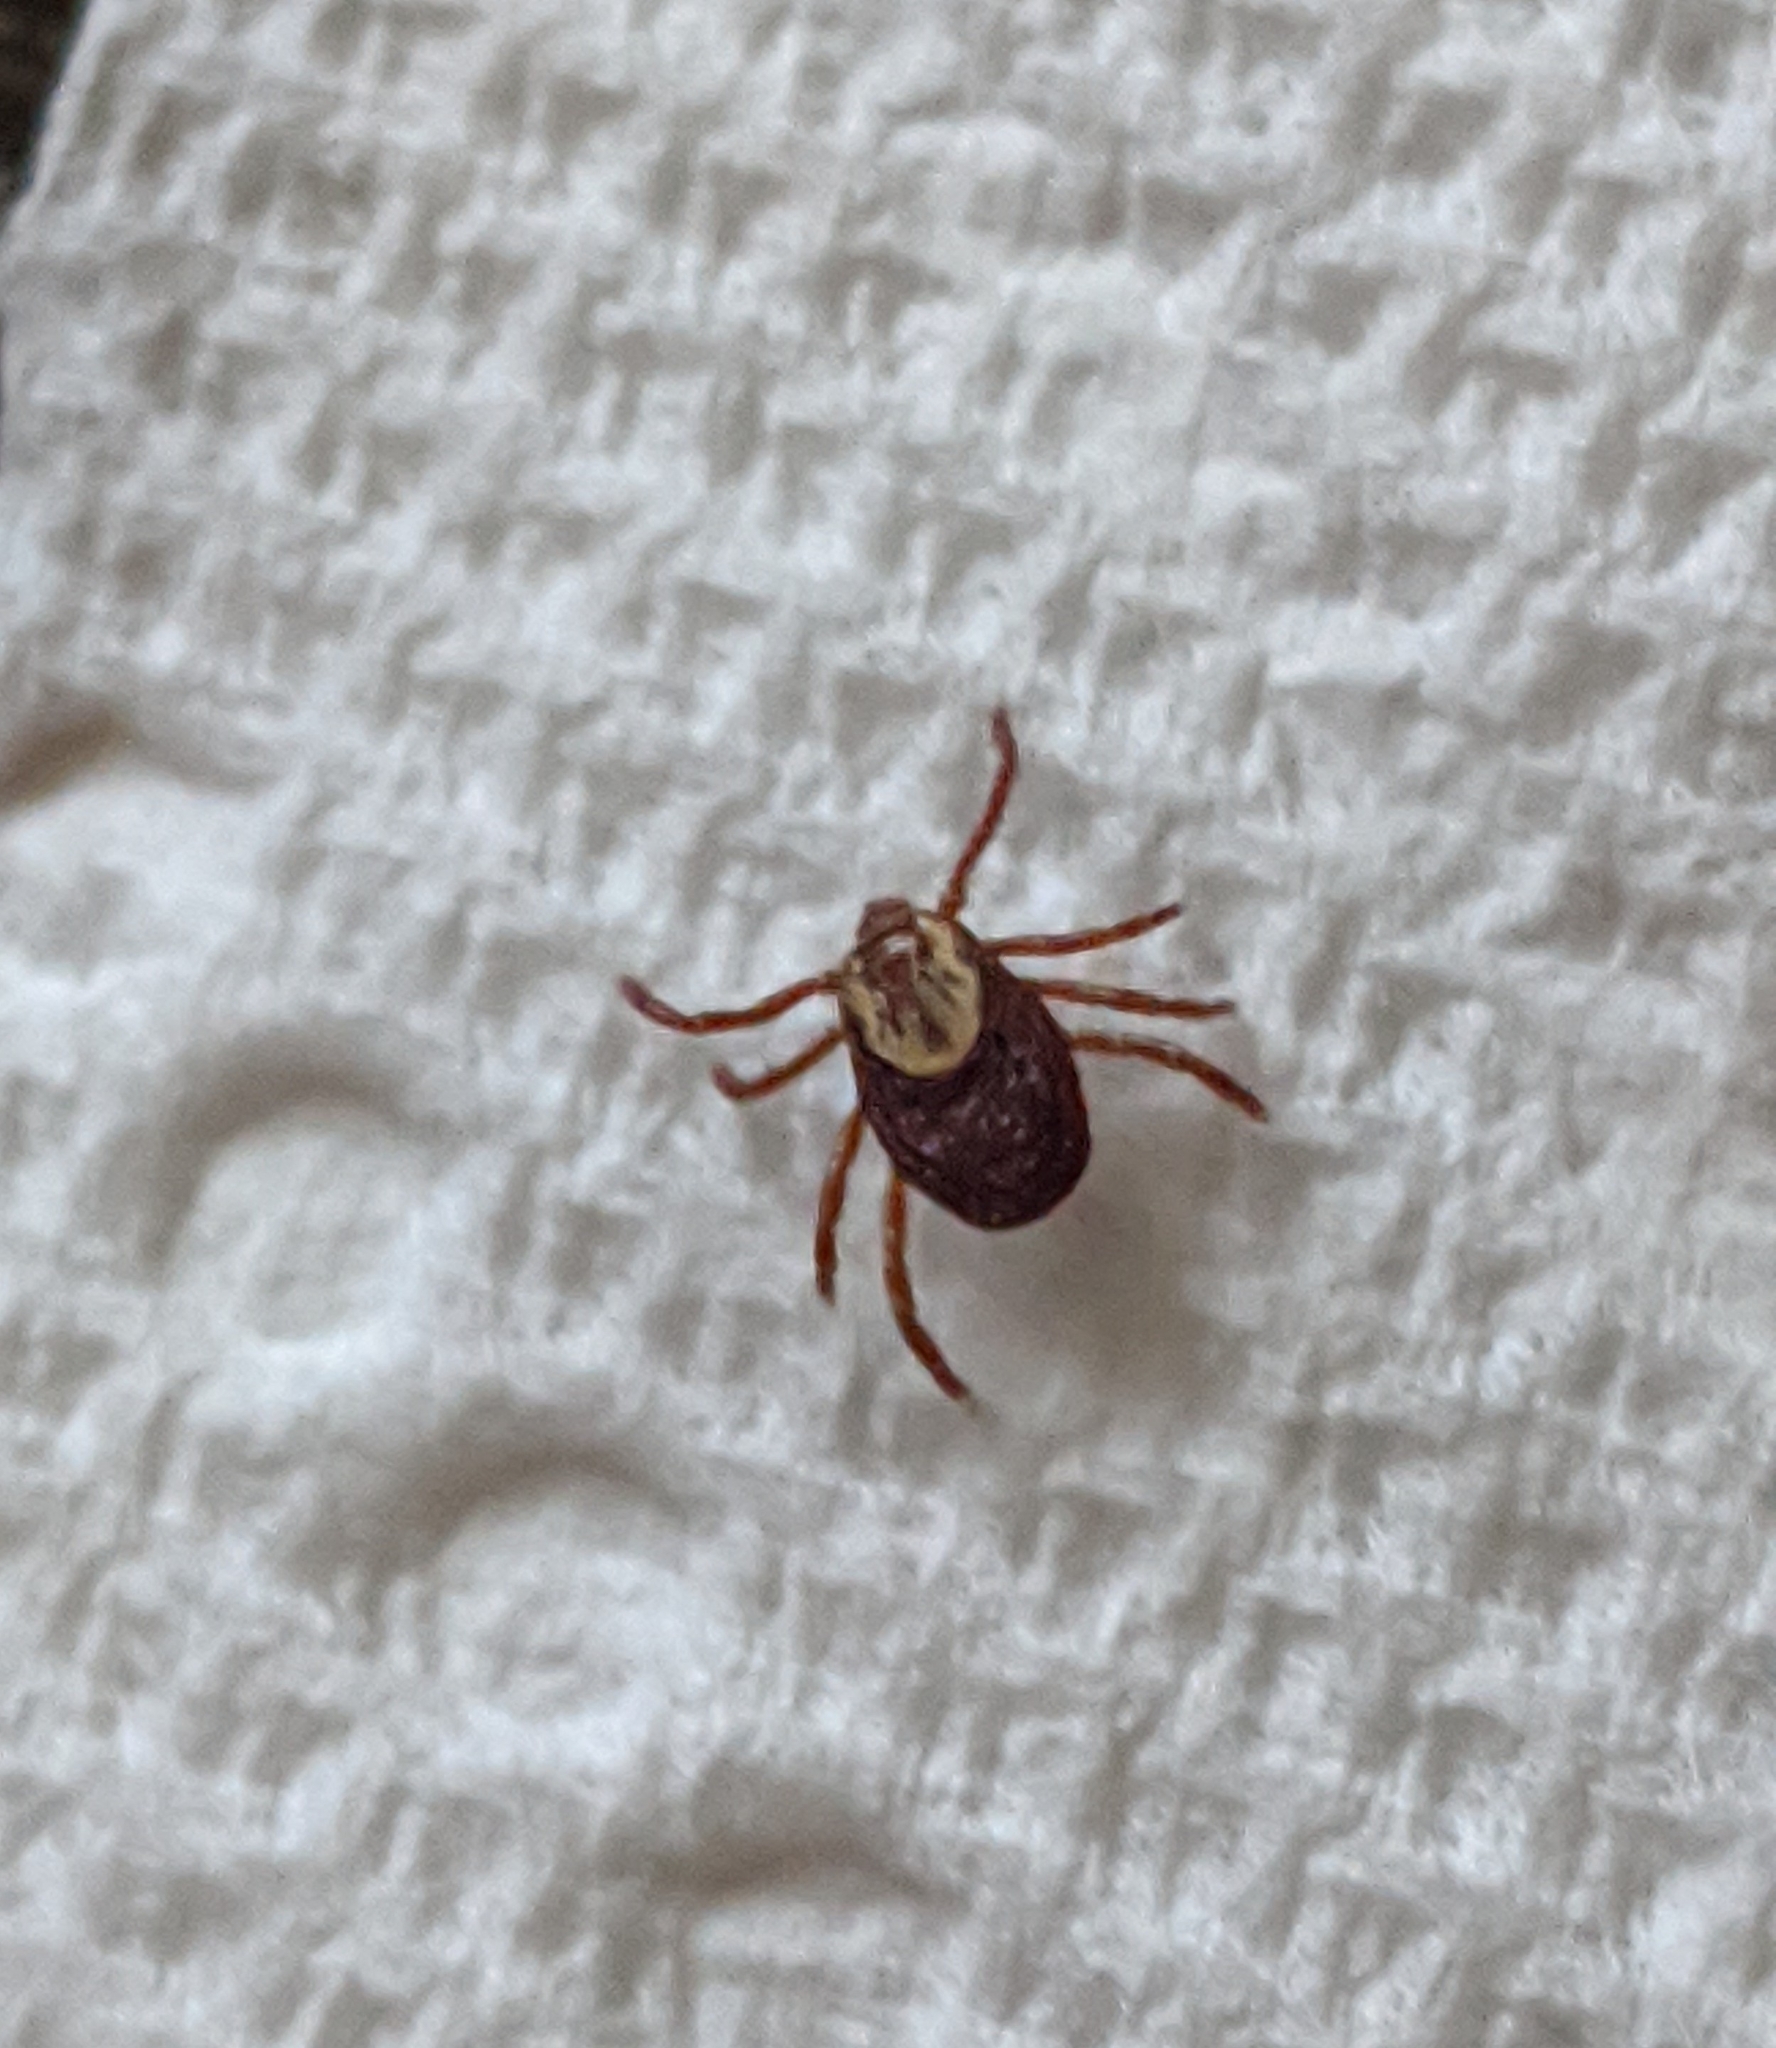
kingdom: Animalia
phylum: Arthropoda
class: Arachnida
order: Ixodida
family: Ixodidae
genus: Dermacentor
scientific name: Dermacentor variabilis
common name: American dog tick
